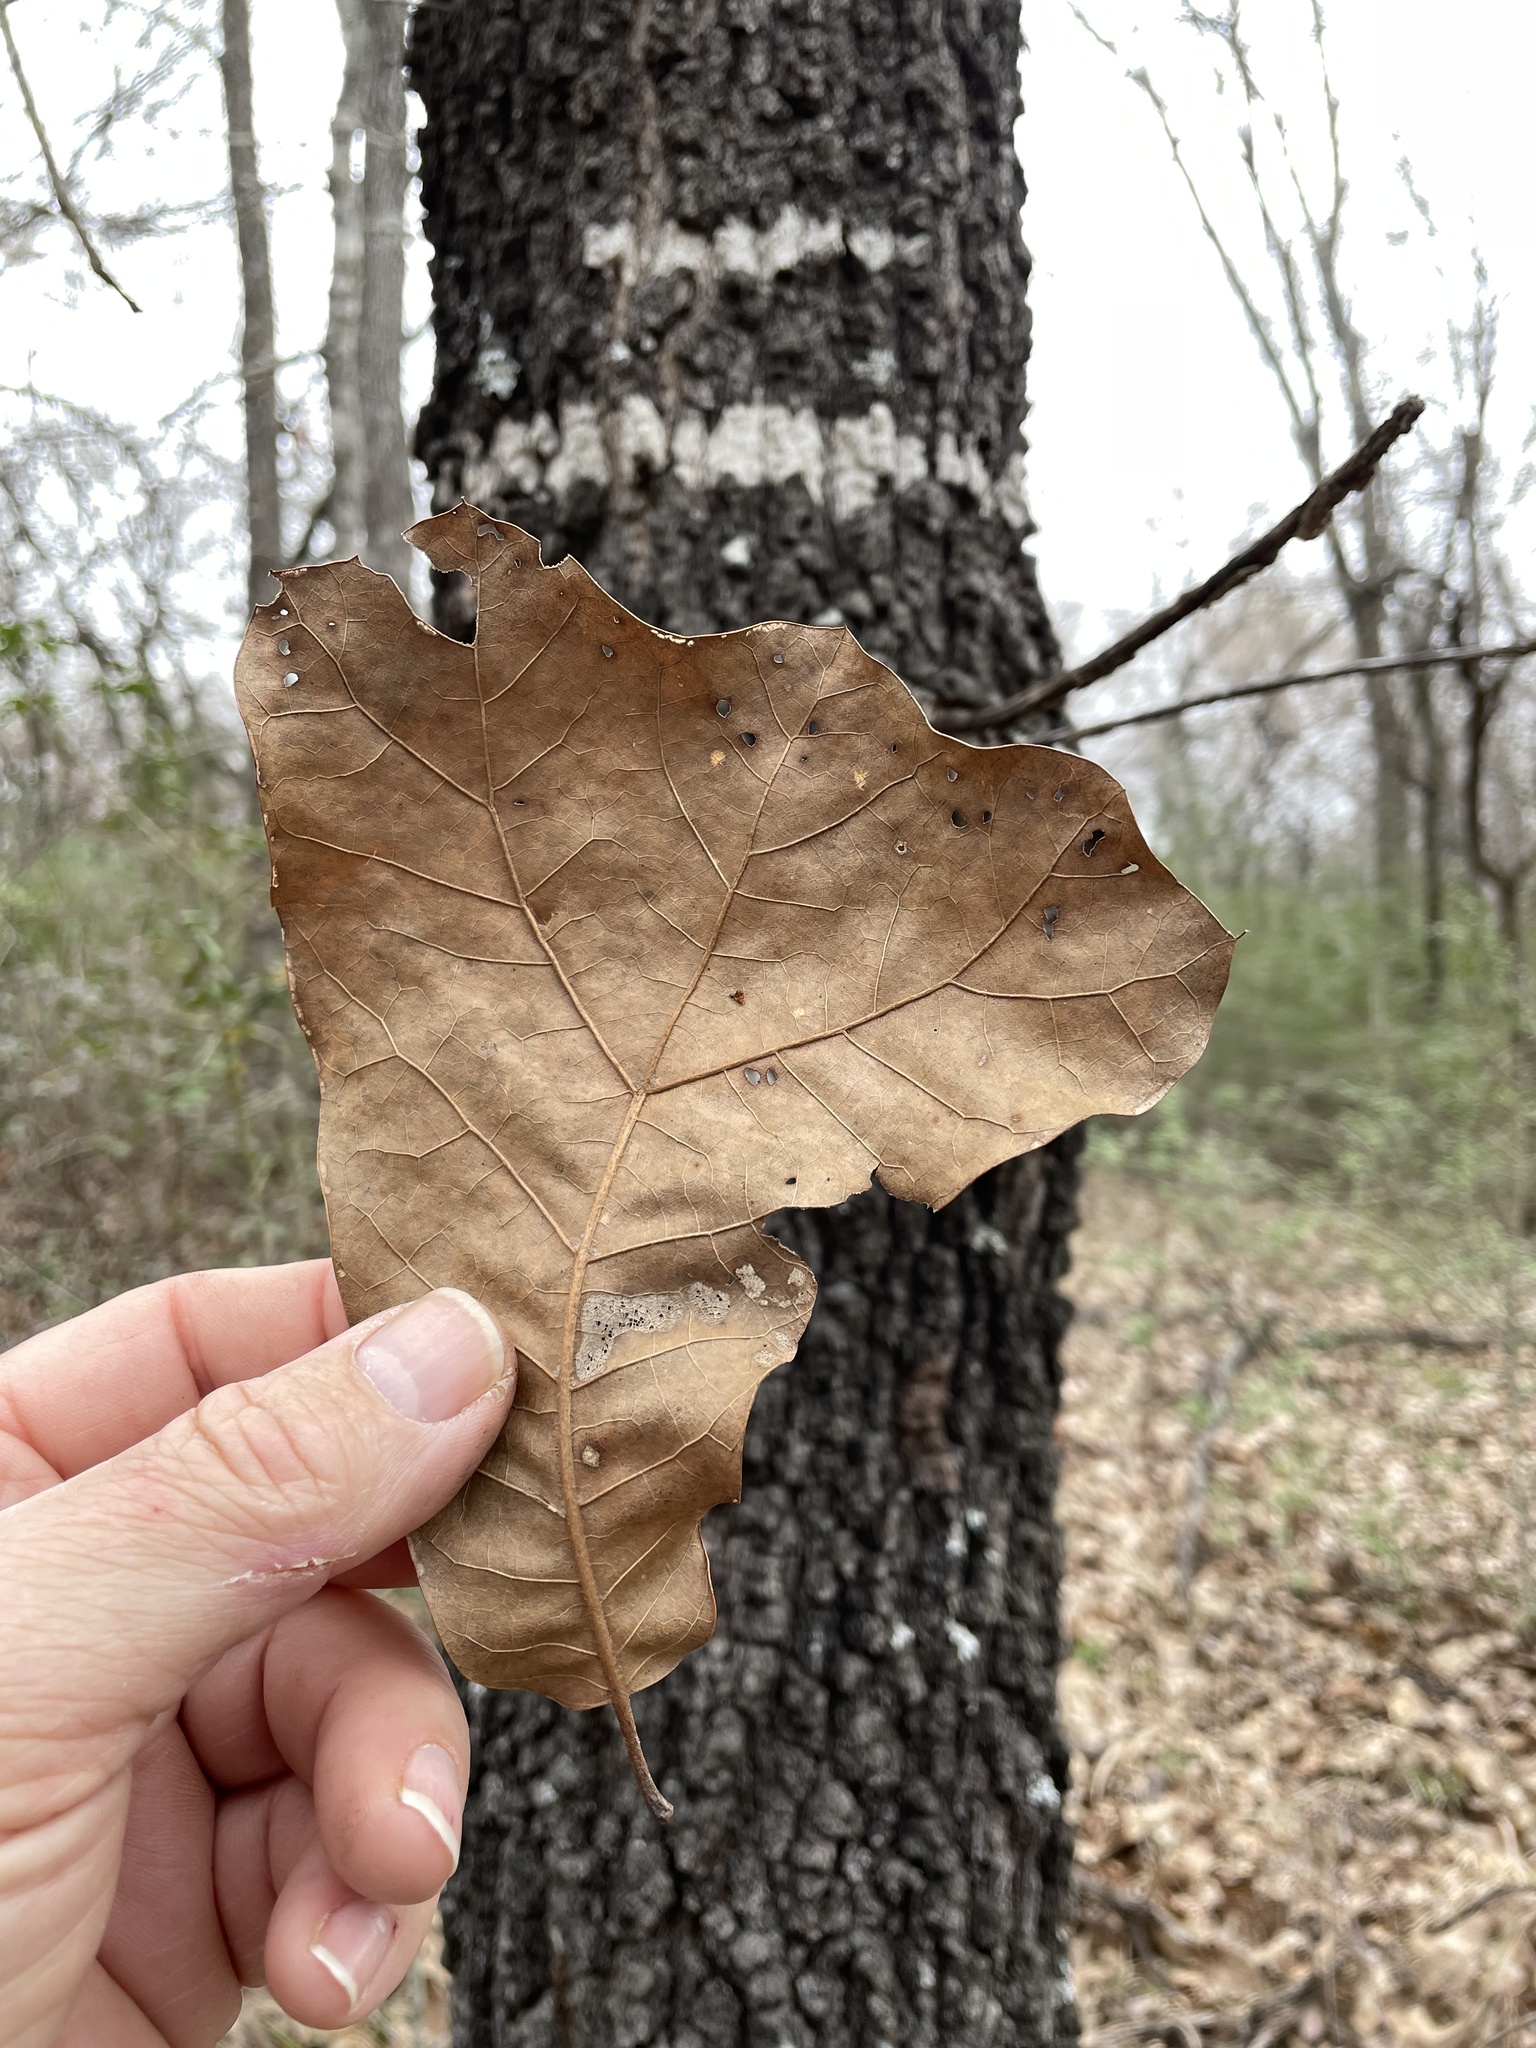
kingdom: Plantae
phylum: Tracheophyta
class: Magnoliopsida
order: Fagales
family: Fagaceae
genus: Quercus
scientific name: Quercus marilandica
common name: Blackjack oak
